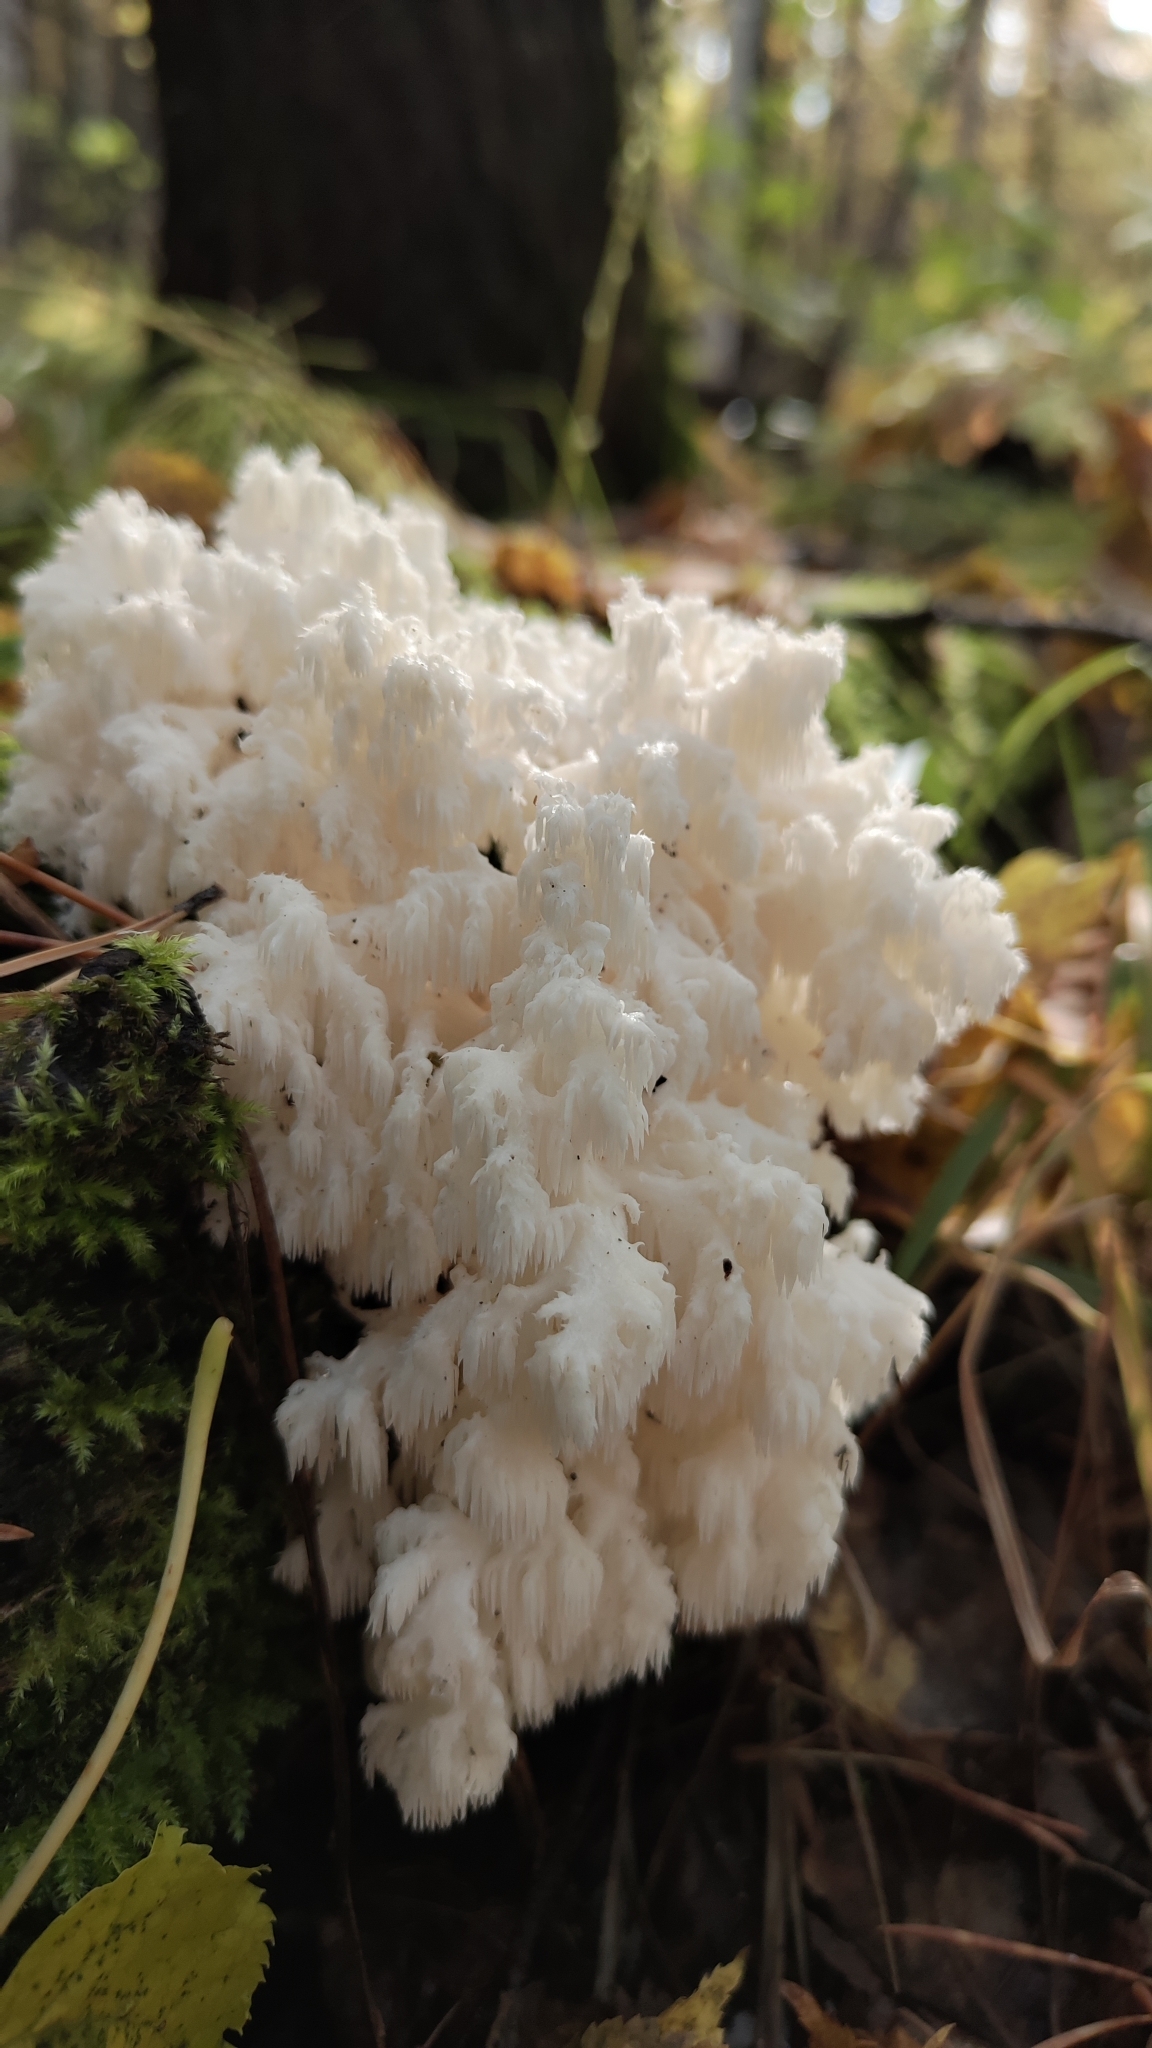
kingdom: Fungi
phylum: Basidiomycota
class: Agaricomycetes
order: Russulales
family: Hericiaceae
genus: Hericium
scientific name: Hericium coralloides
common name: Coral tooth
